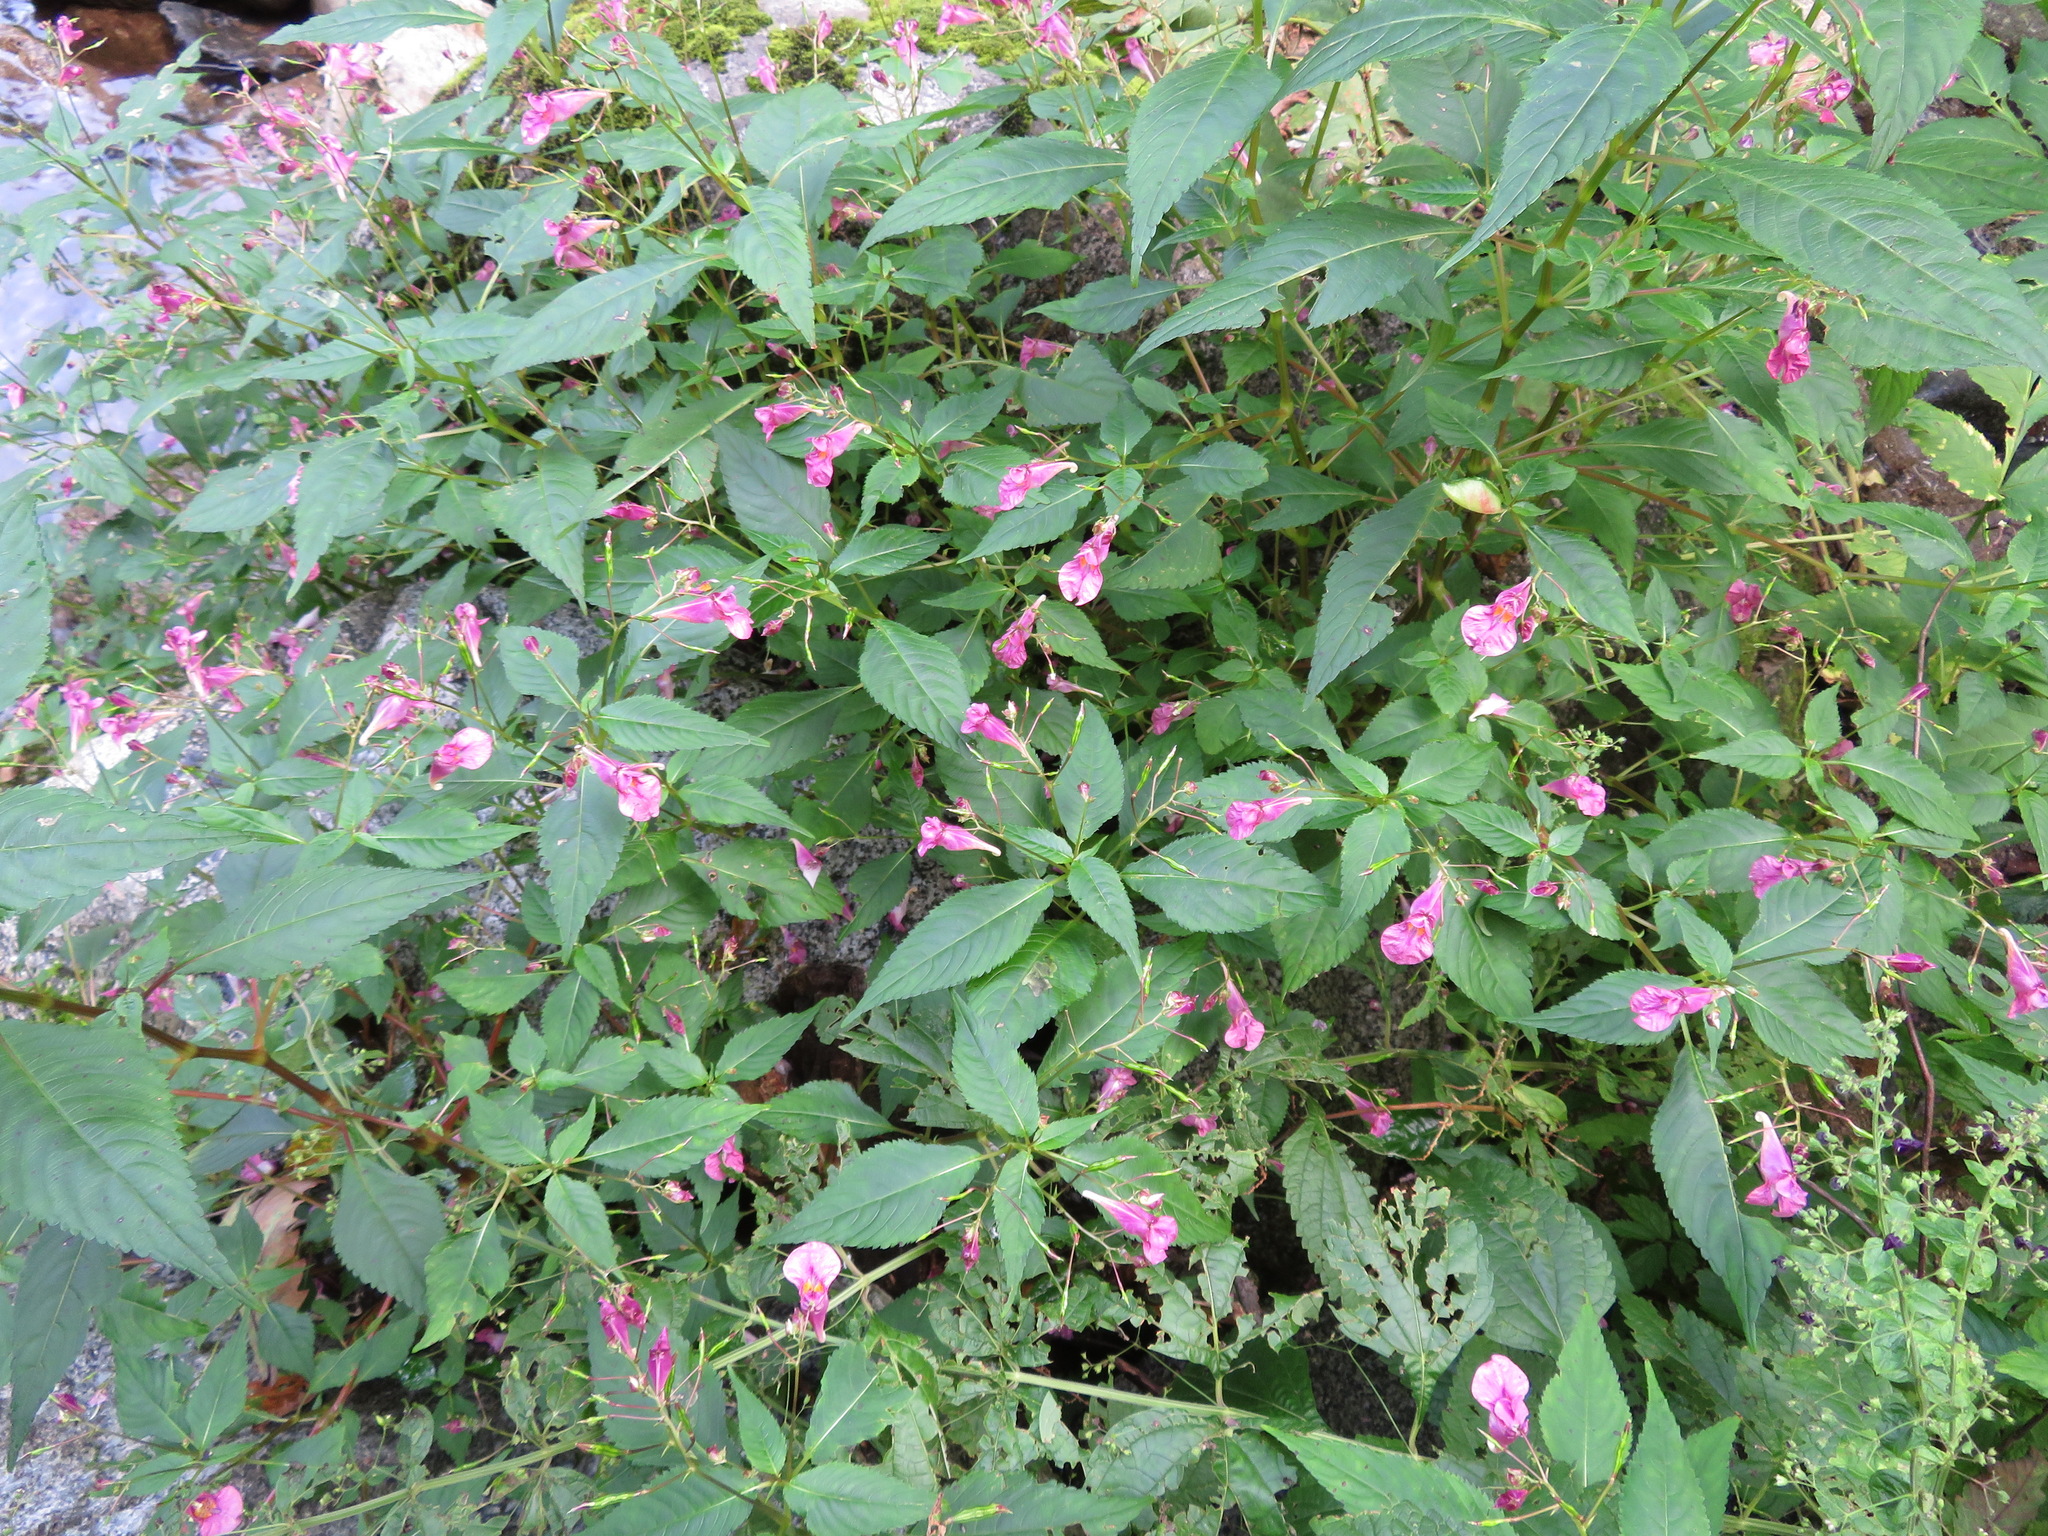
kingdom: Plantae
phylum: Tracheophyta
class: Magnoliopsida
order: Ericales
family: Balsaminaceae
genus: Impatiens
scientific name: Impatiens textorii
